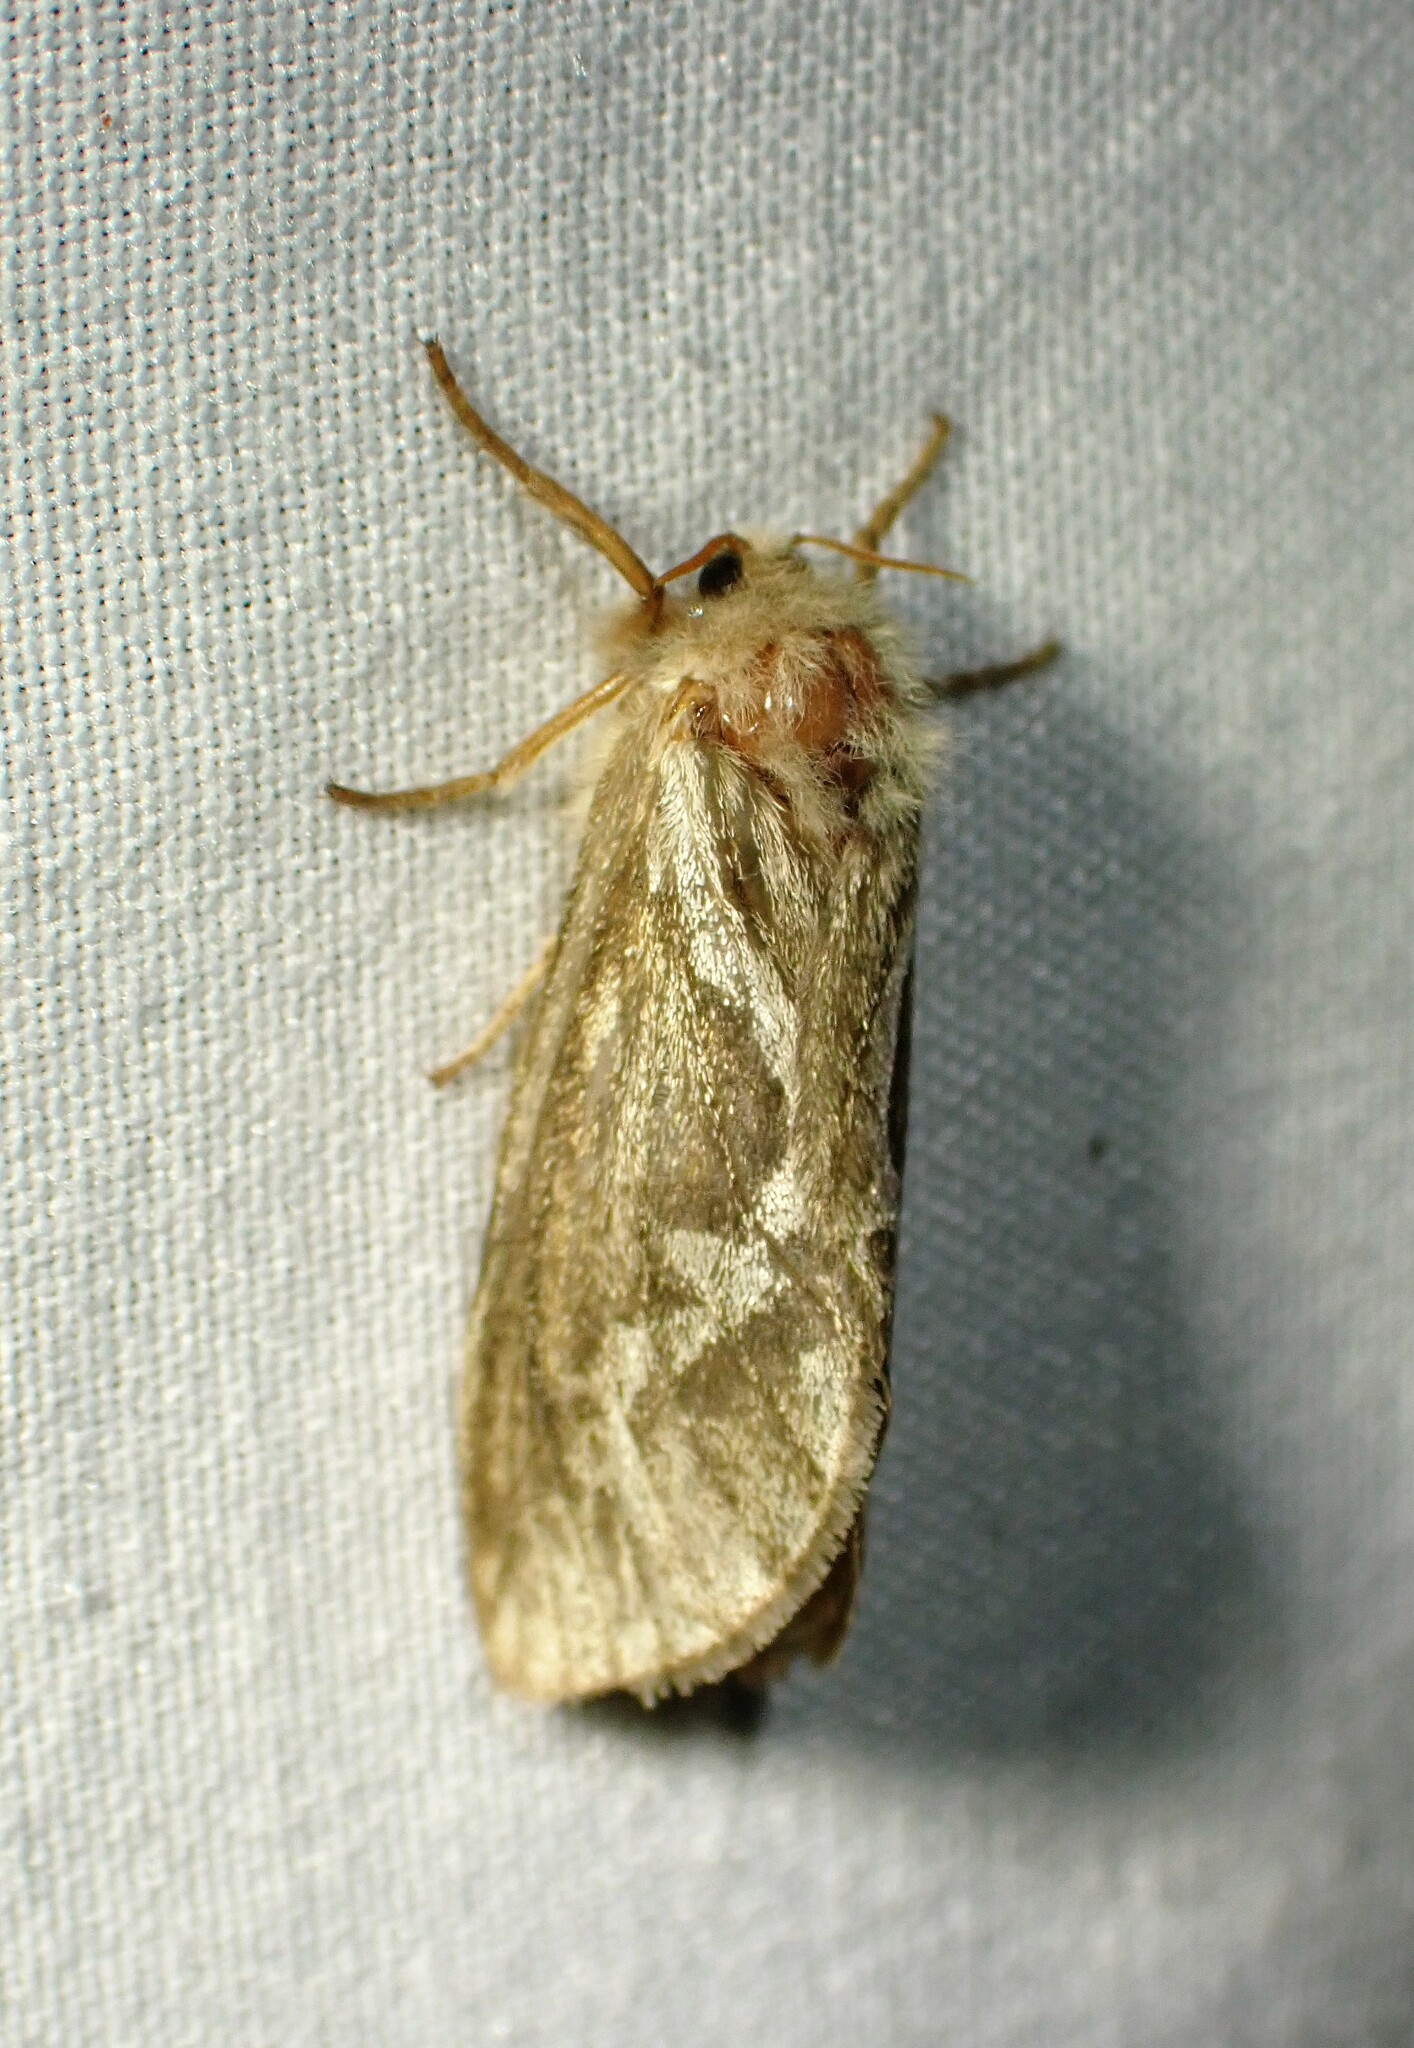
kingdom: Animalia
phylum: Arthropoda
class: Insecta
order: Lepidoptera
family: Hepialidae
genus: Korscheltellus
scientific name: Korscheltellus lupulina
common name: Common swift
